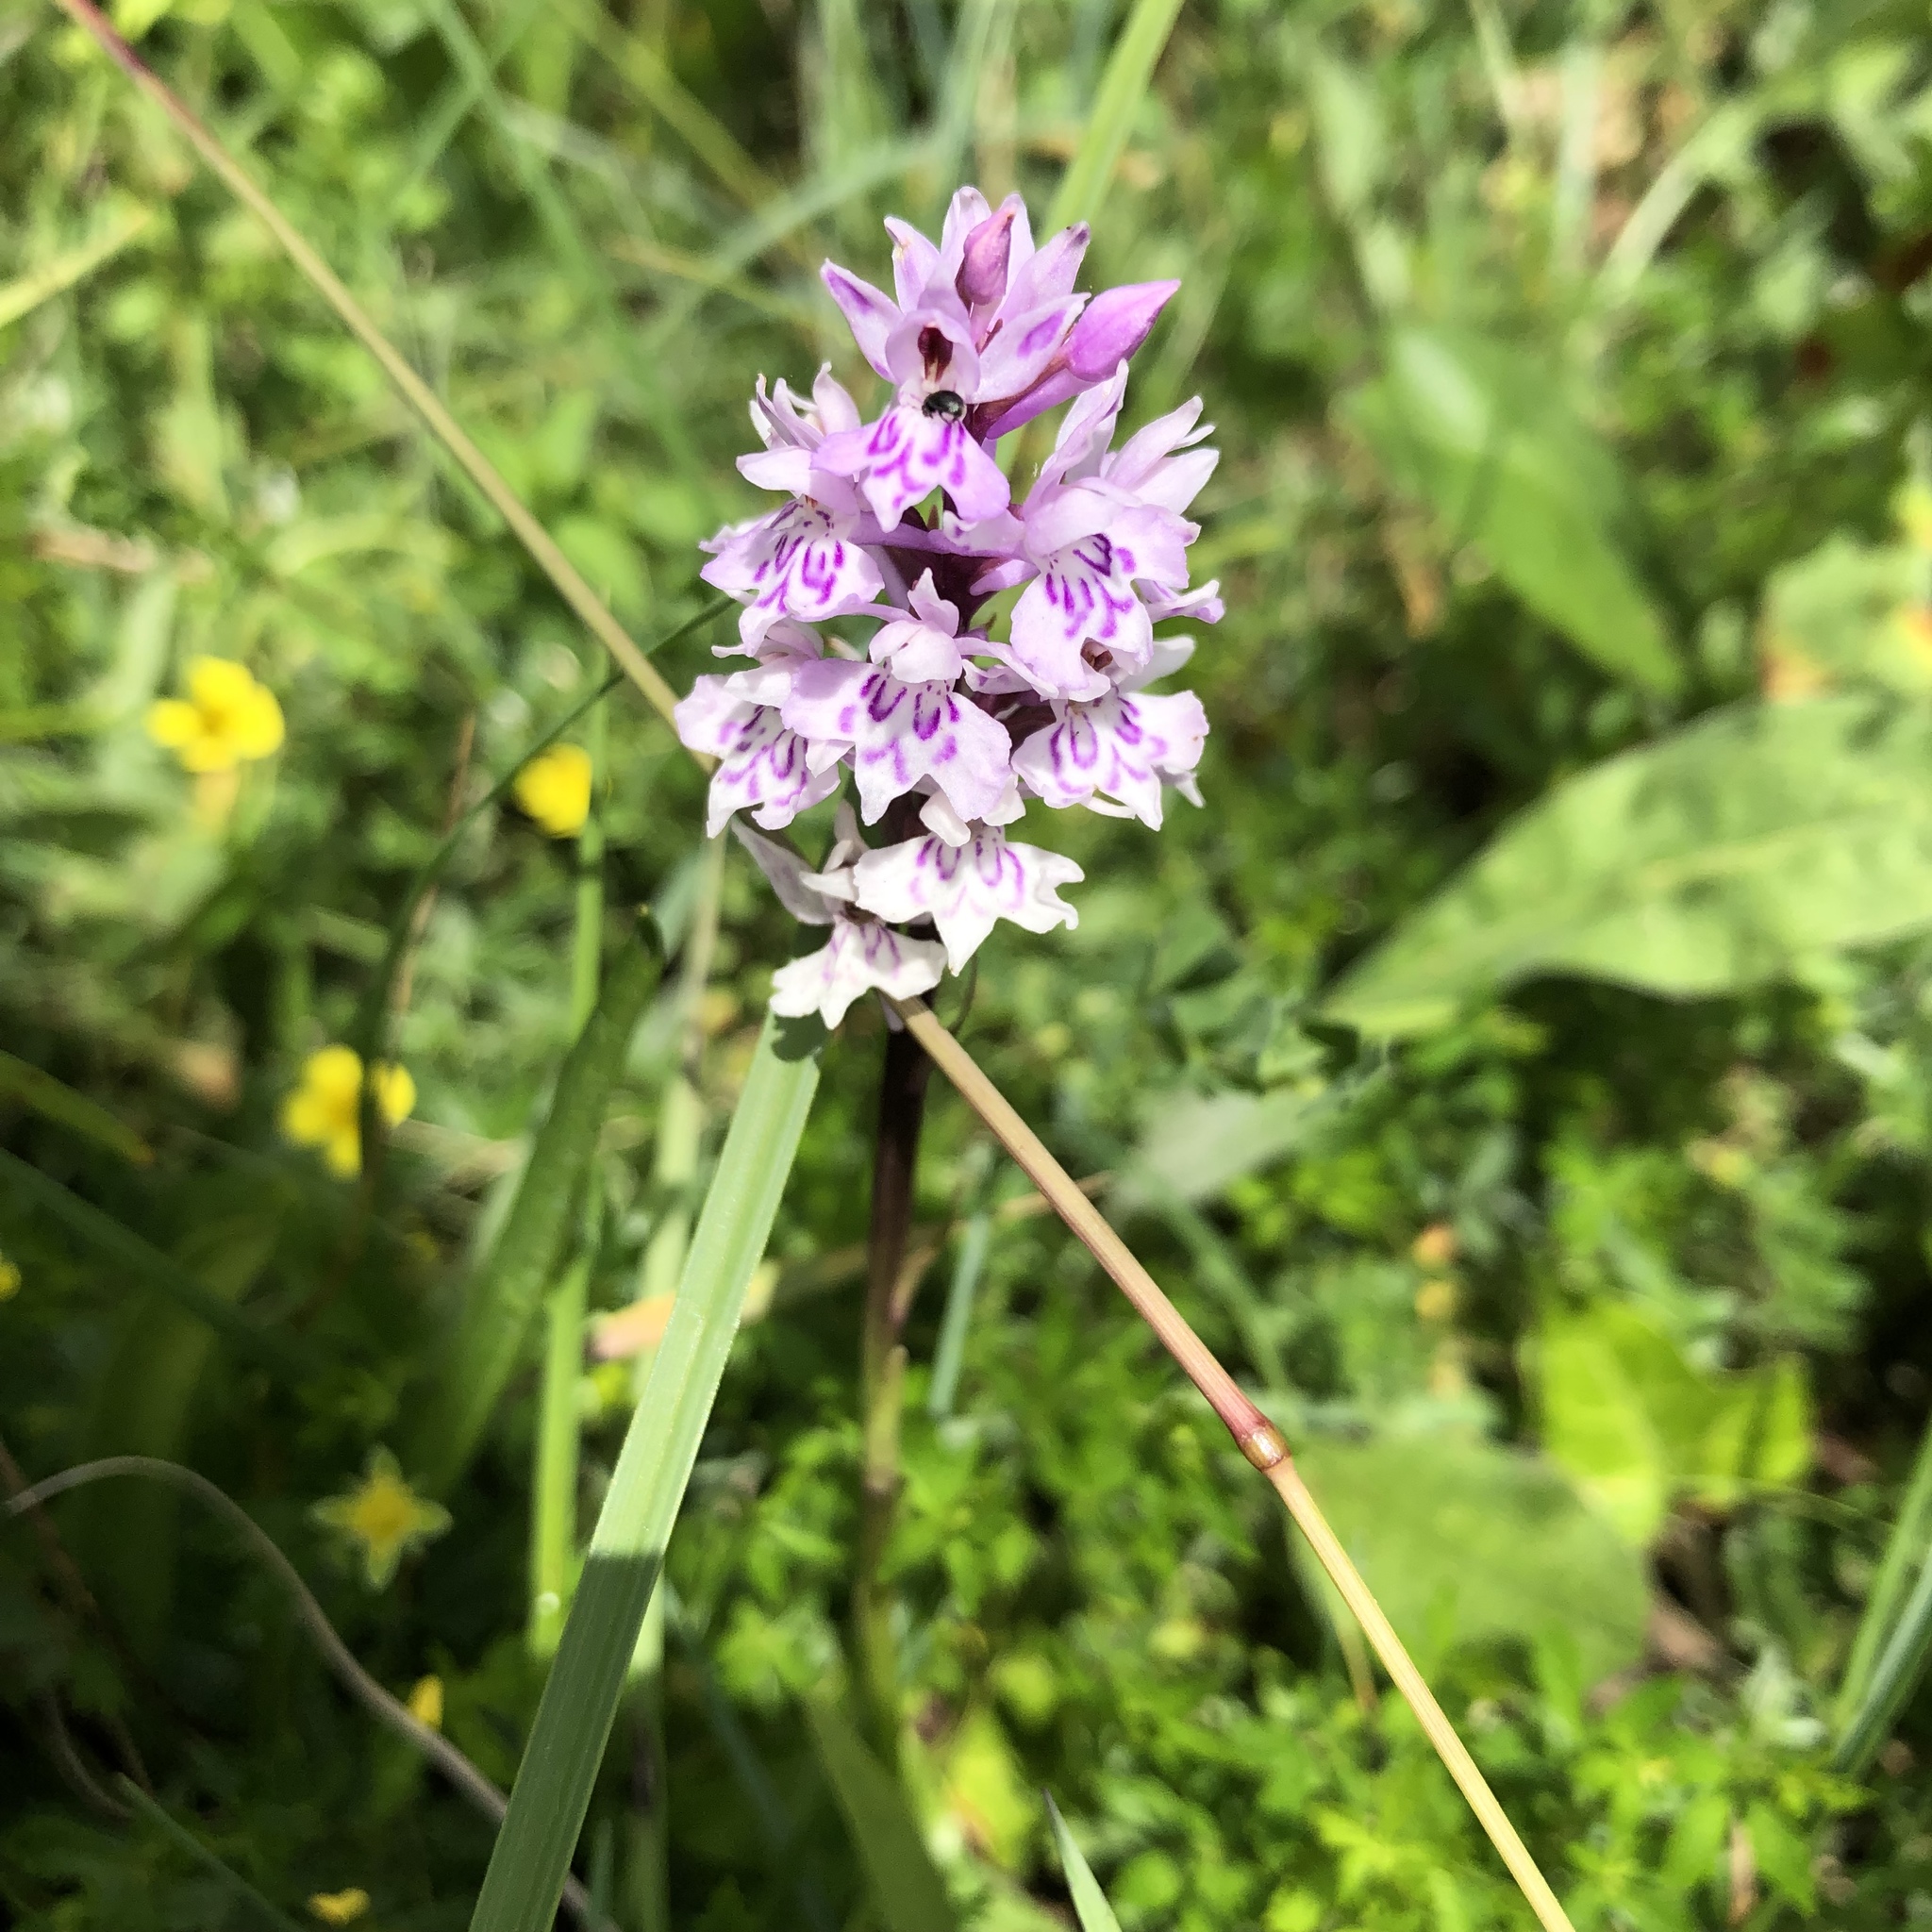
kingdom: Plantae
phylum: Tracheophyta
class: Liliopsida
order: Asparagales
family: Orchidaceae
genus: Dactylorhiza
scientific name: Dactylorhiza maculata
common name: Heath spotted-orchid
